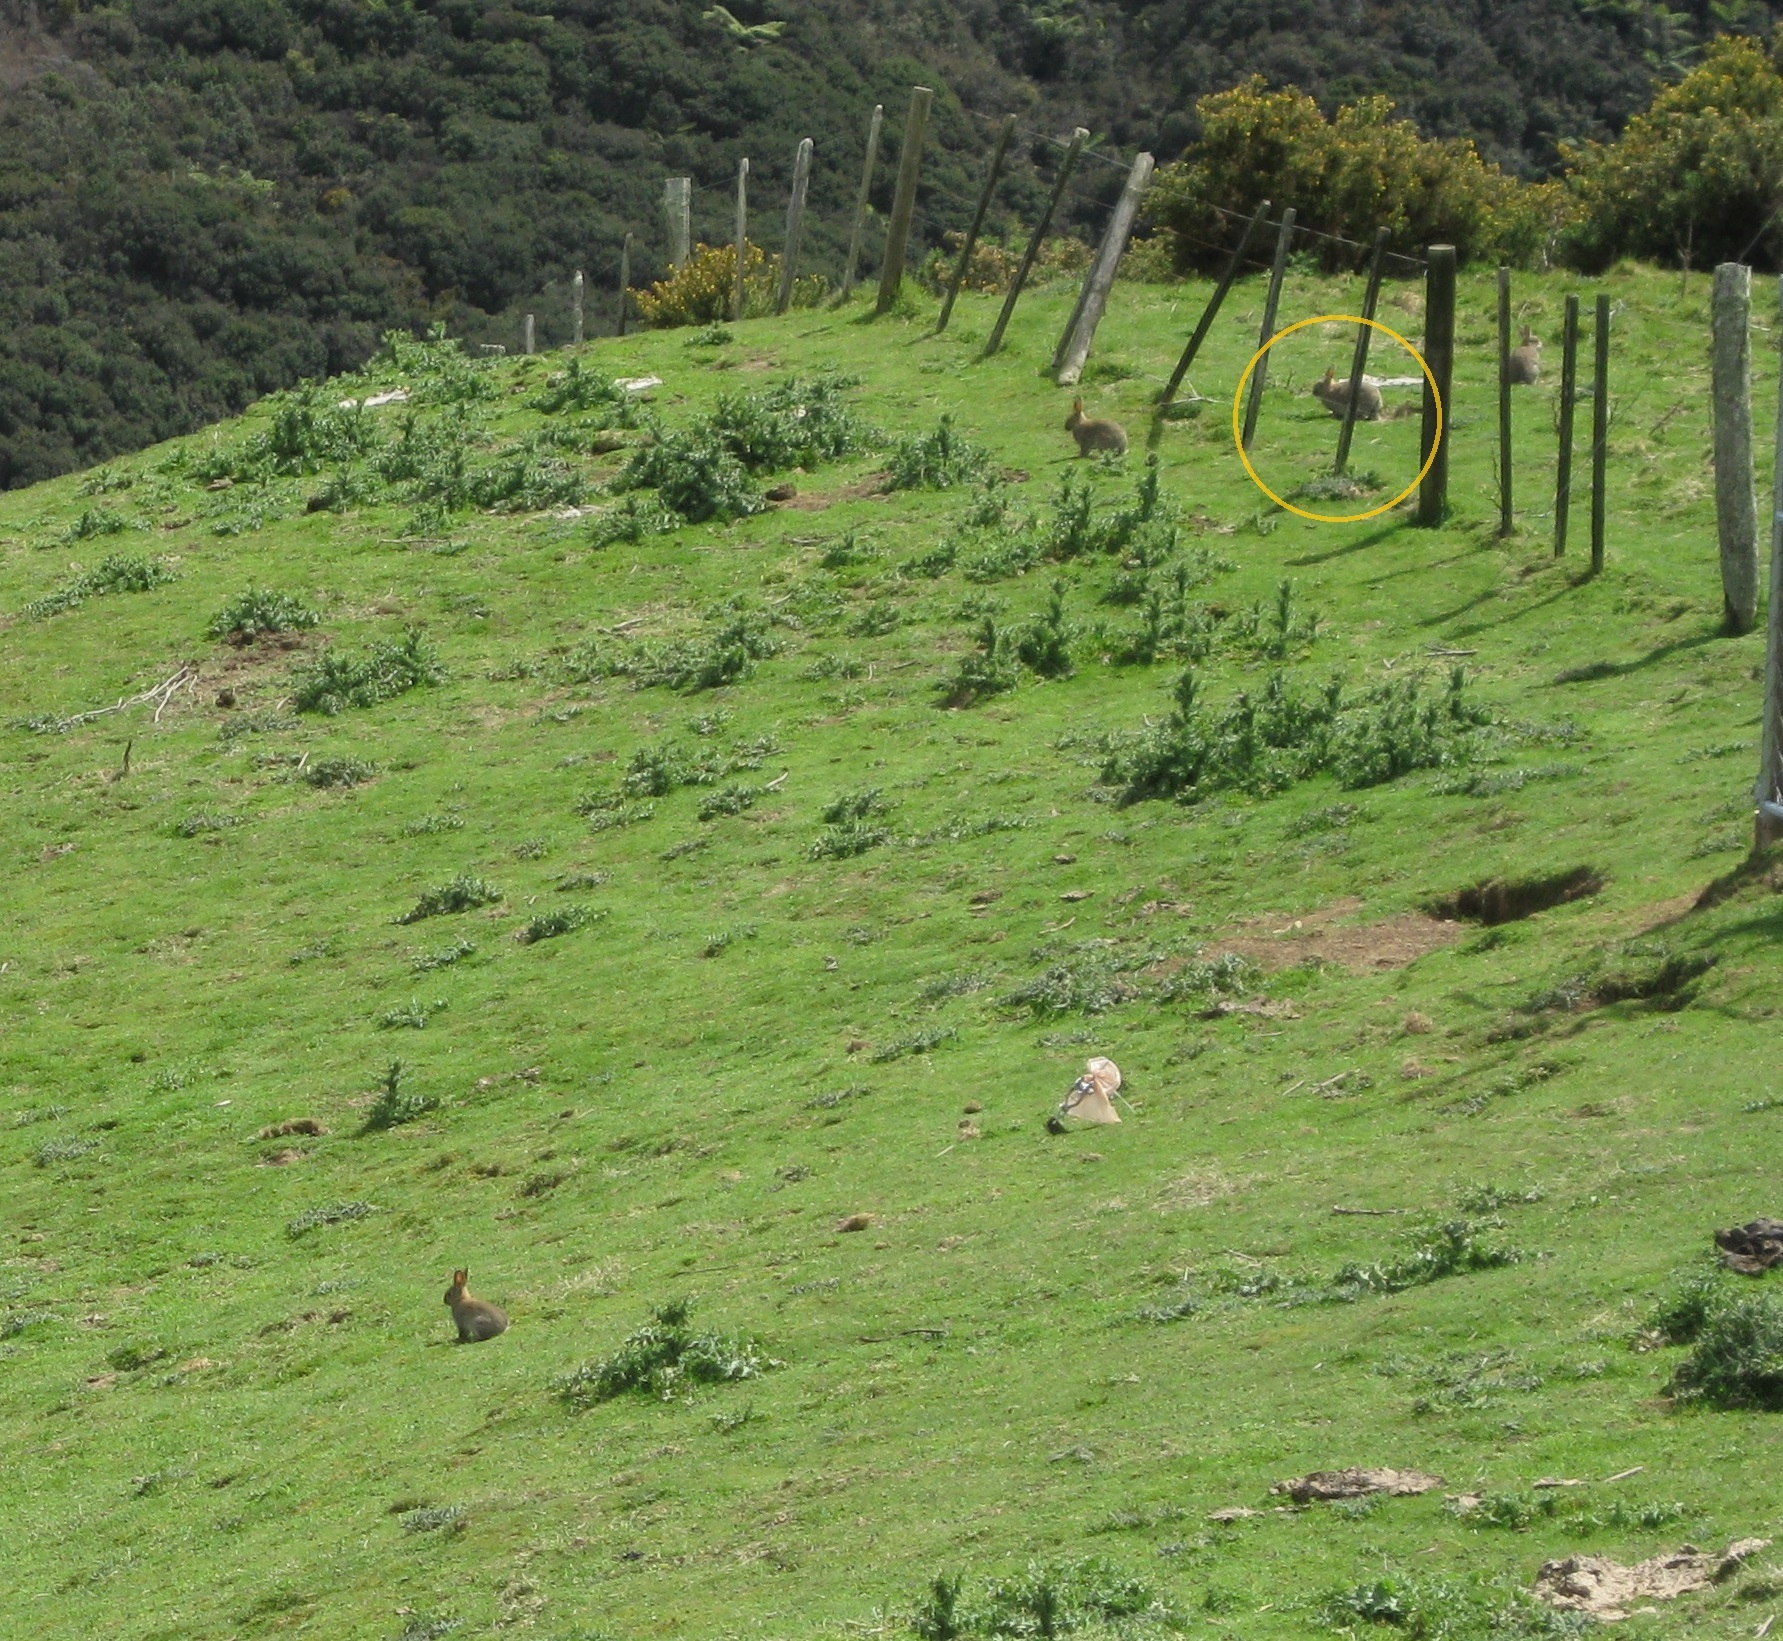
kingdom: Animalia
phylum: Chordata
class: Mammalia
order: Lagomorpha
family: Leporidae
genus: Oryctolagus
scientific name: Oryctolagus cuniculus
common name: European rabbit
